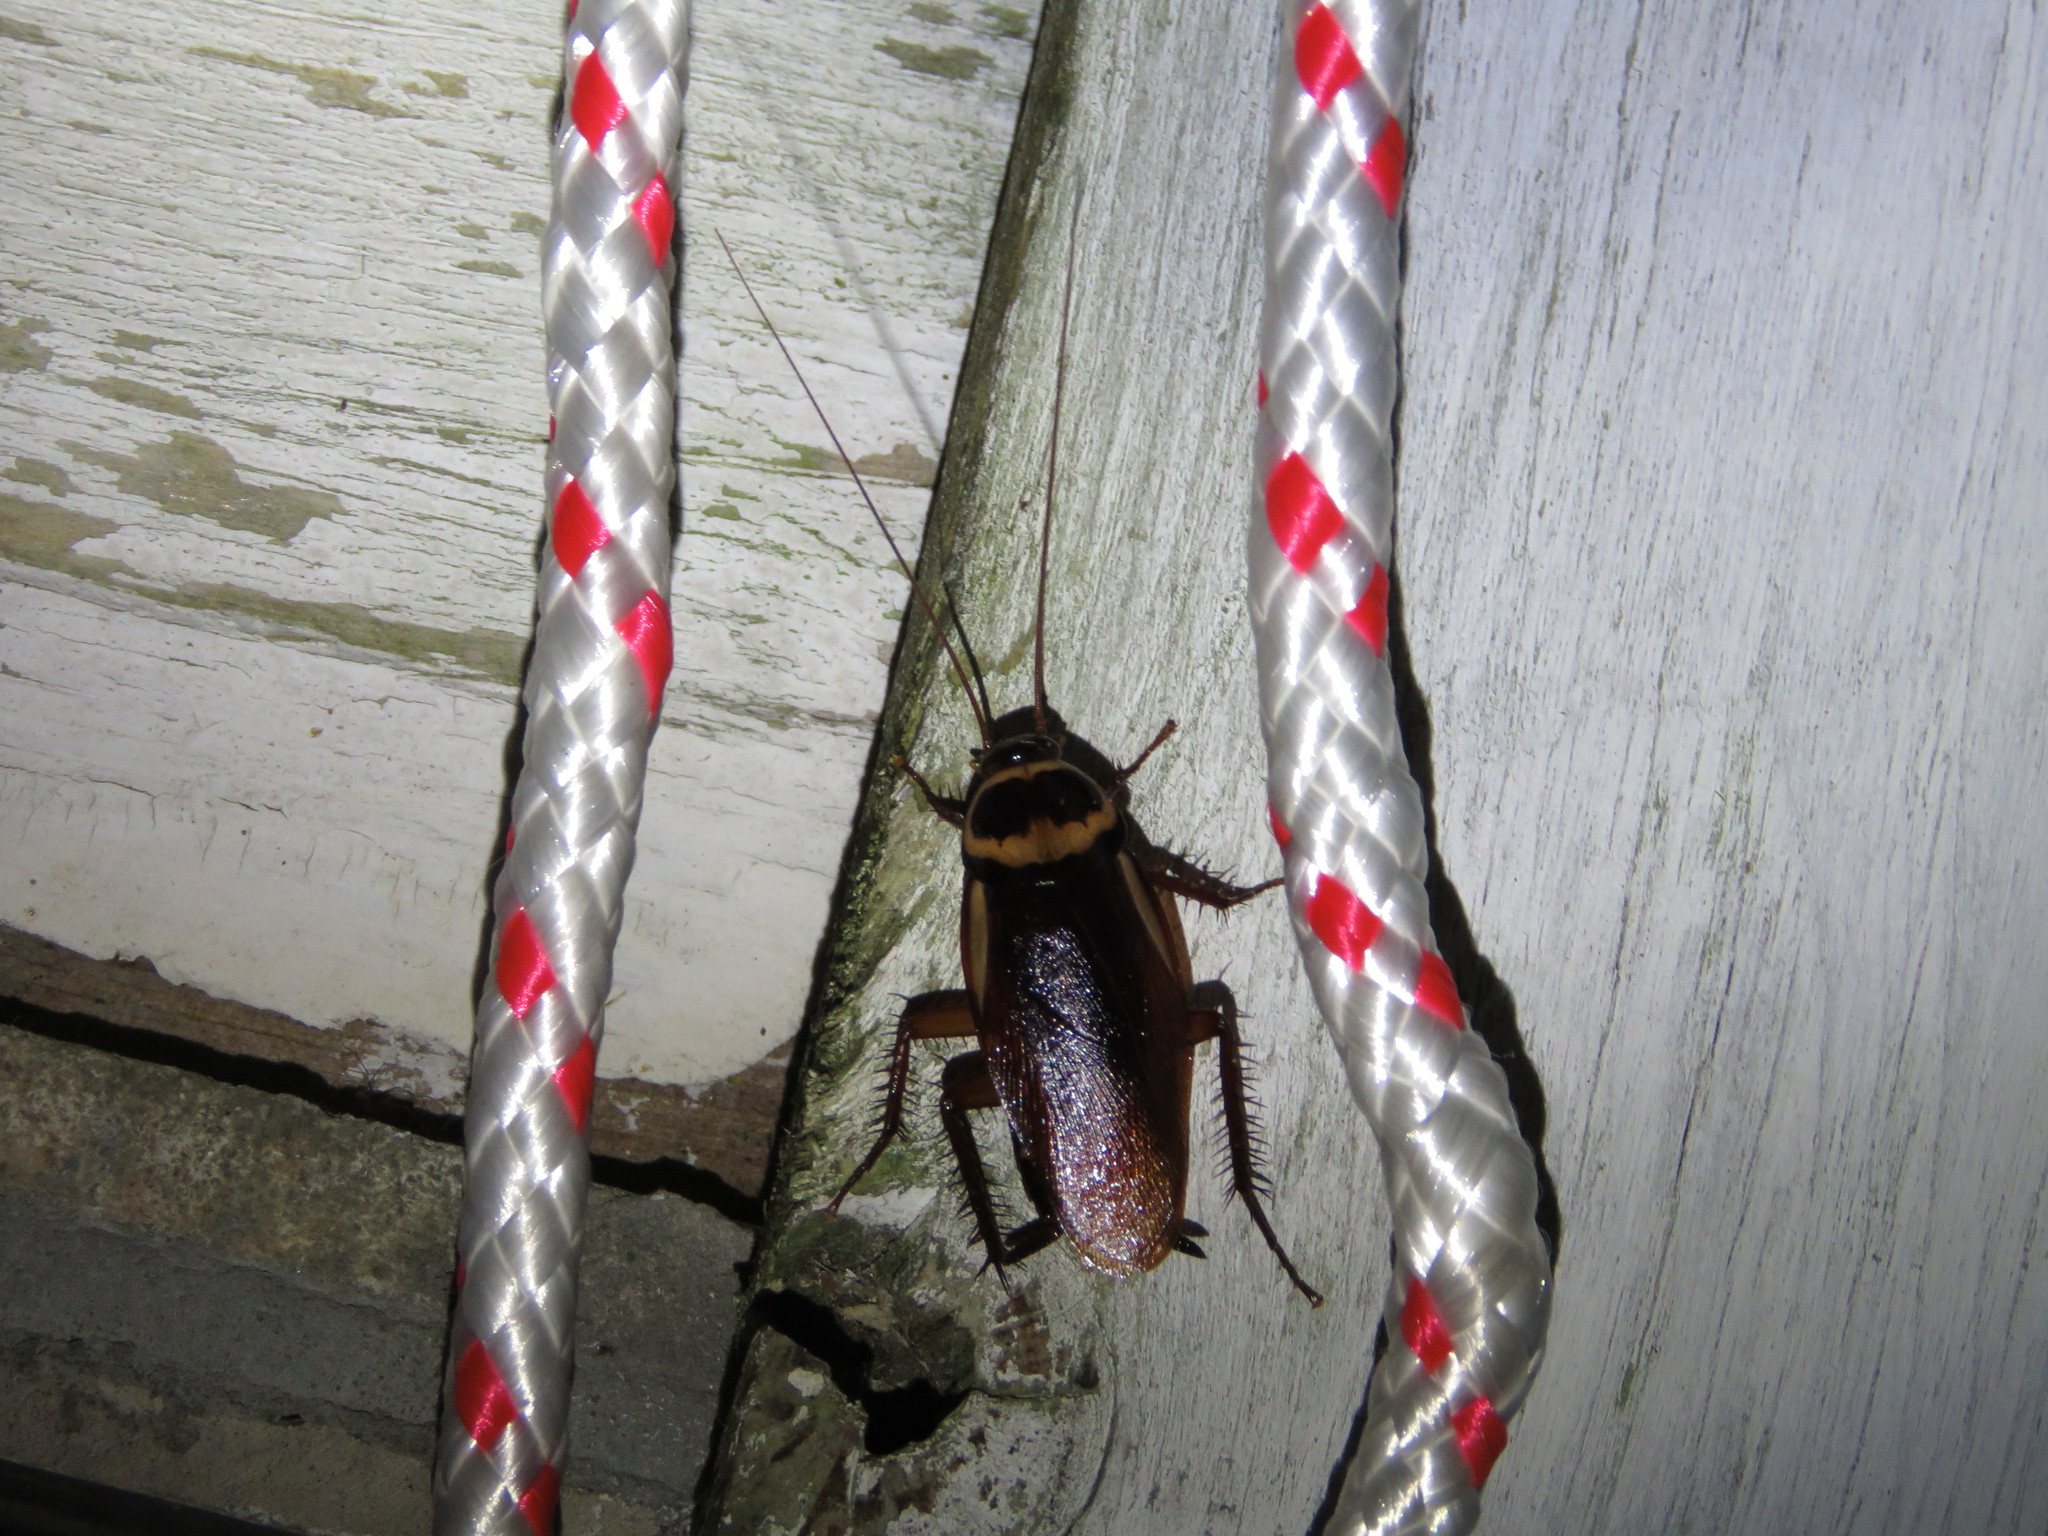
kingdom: Animalia
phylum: Arthropoda
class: Insecta
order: Blattodea
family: Blattidae
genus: Periplaneta
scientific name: Periplaneta australasiae
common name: Australian cockroach
